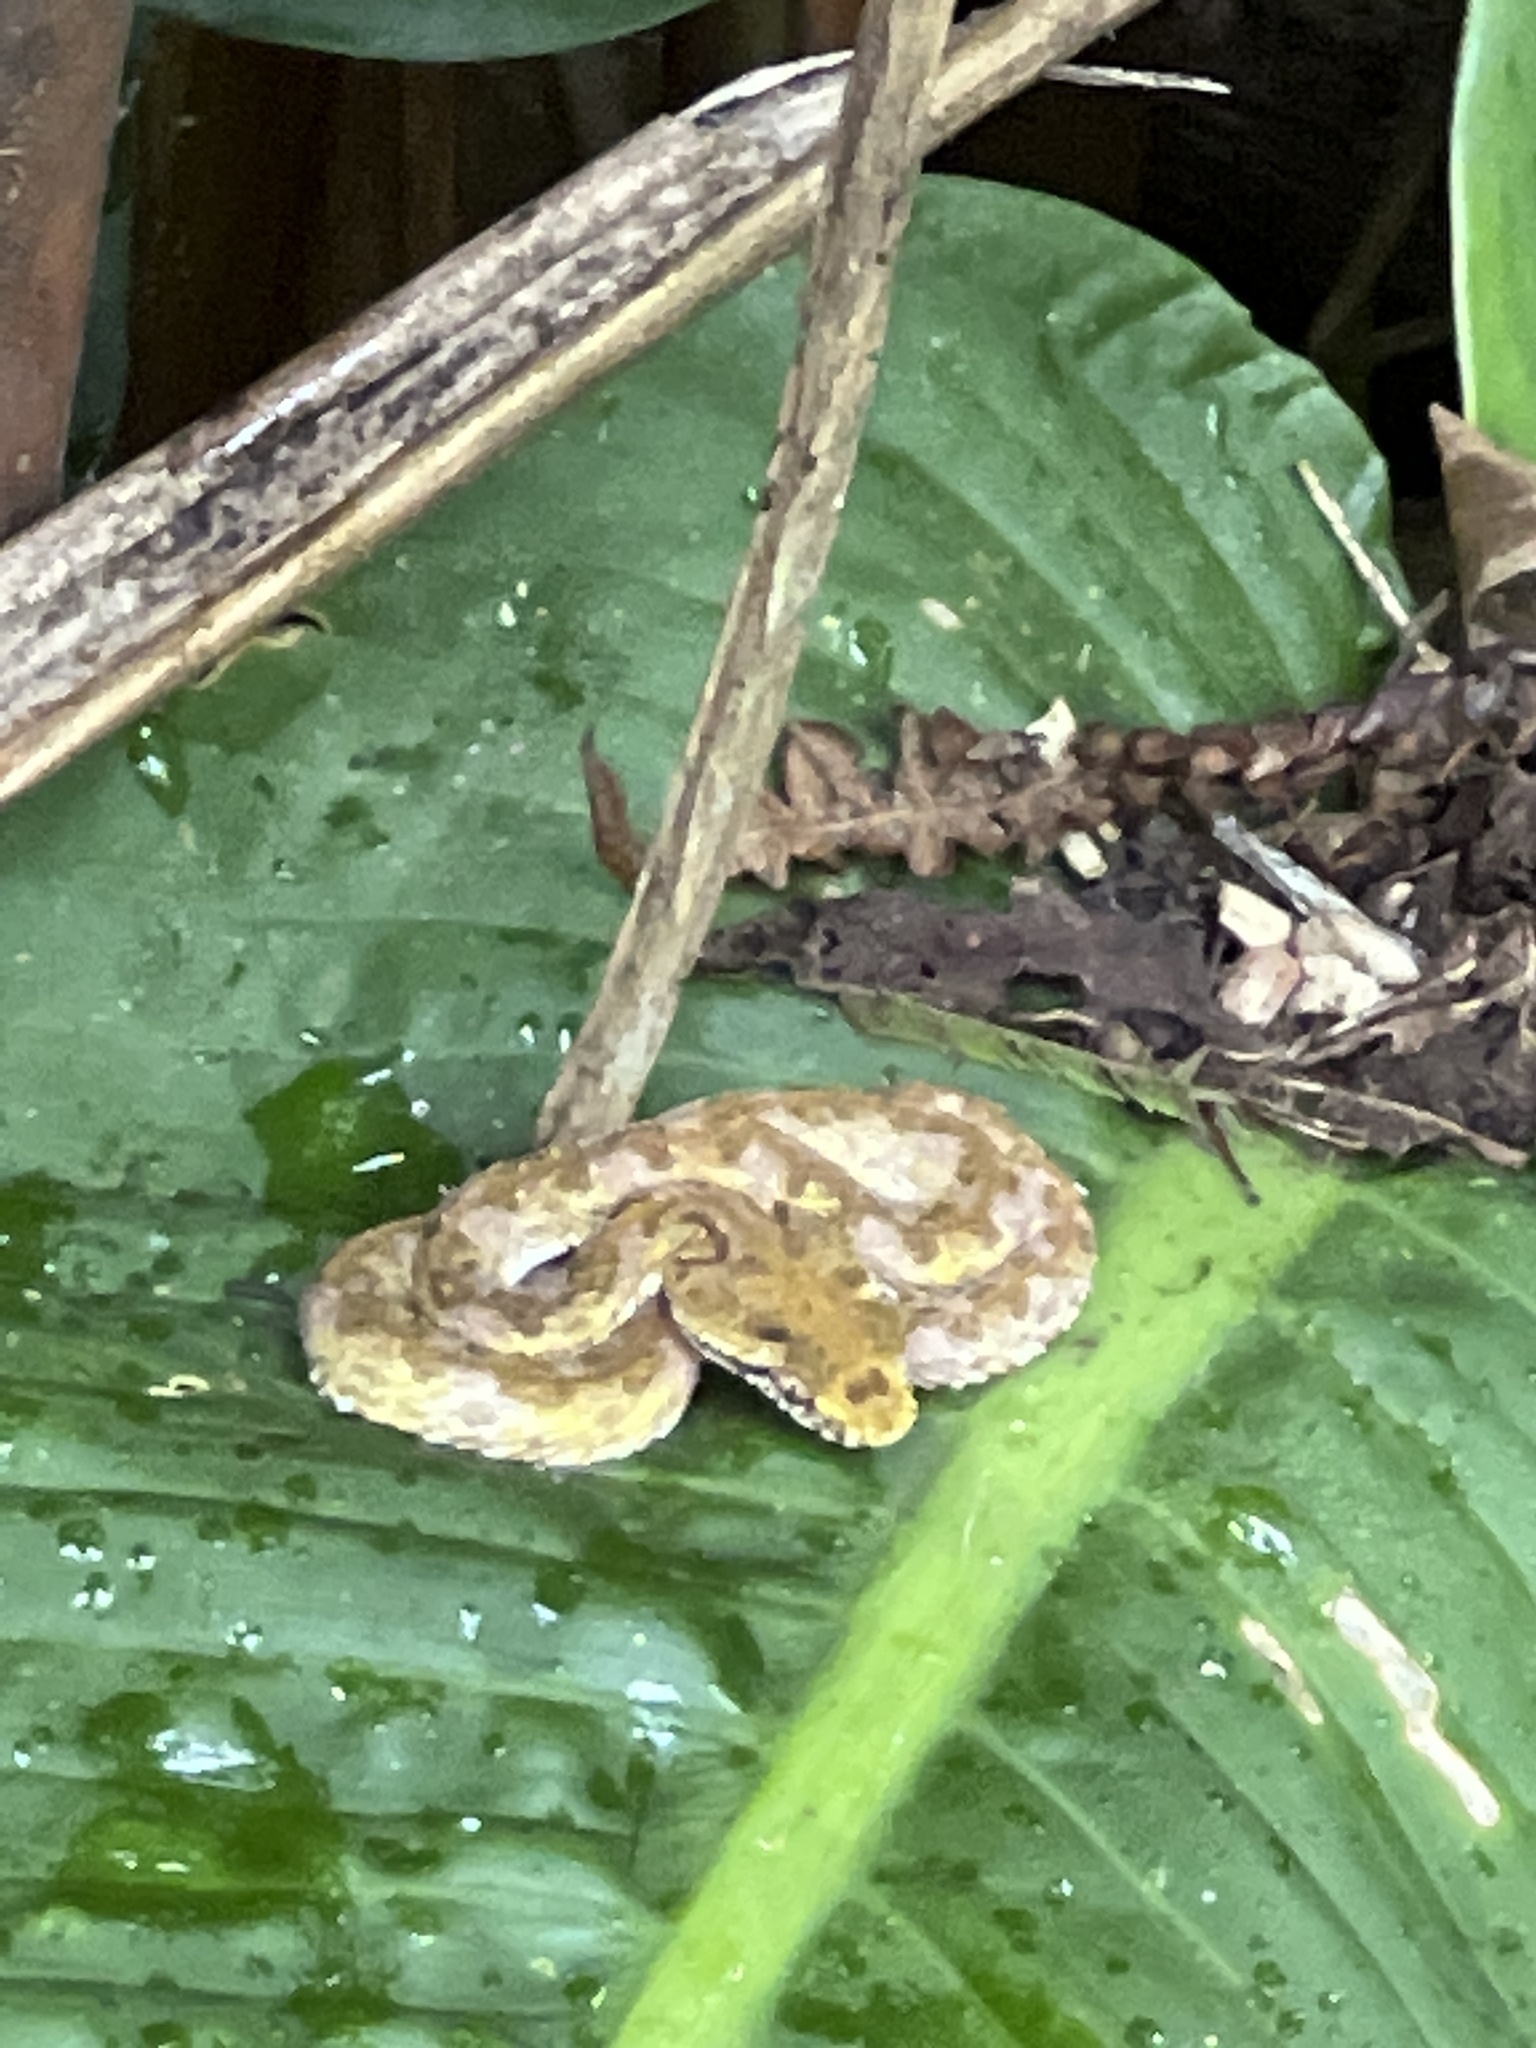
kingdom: Animalia
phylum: Chordata
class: Squamata
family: Viperidae
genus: Bothriechis
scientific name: Bothriechis schlegelii
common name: Eyelash viper
